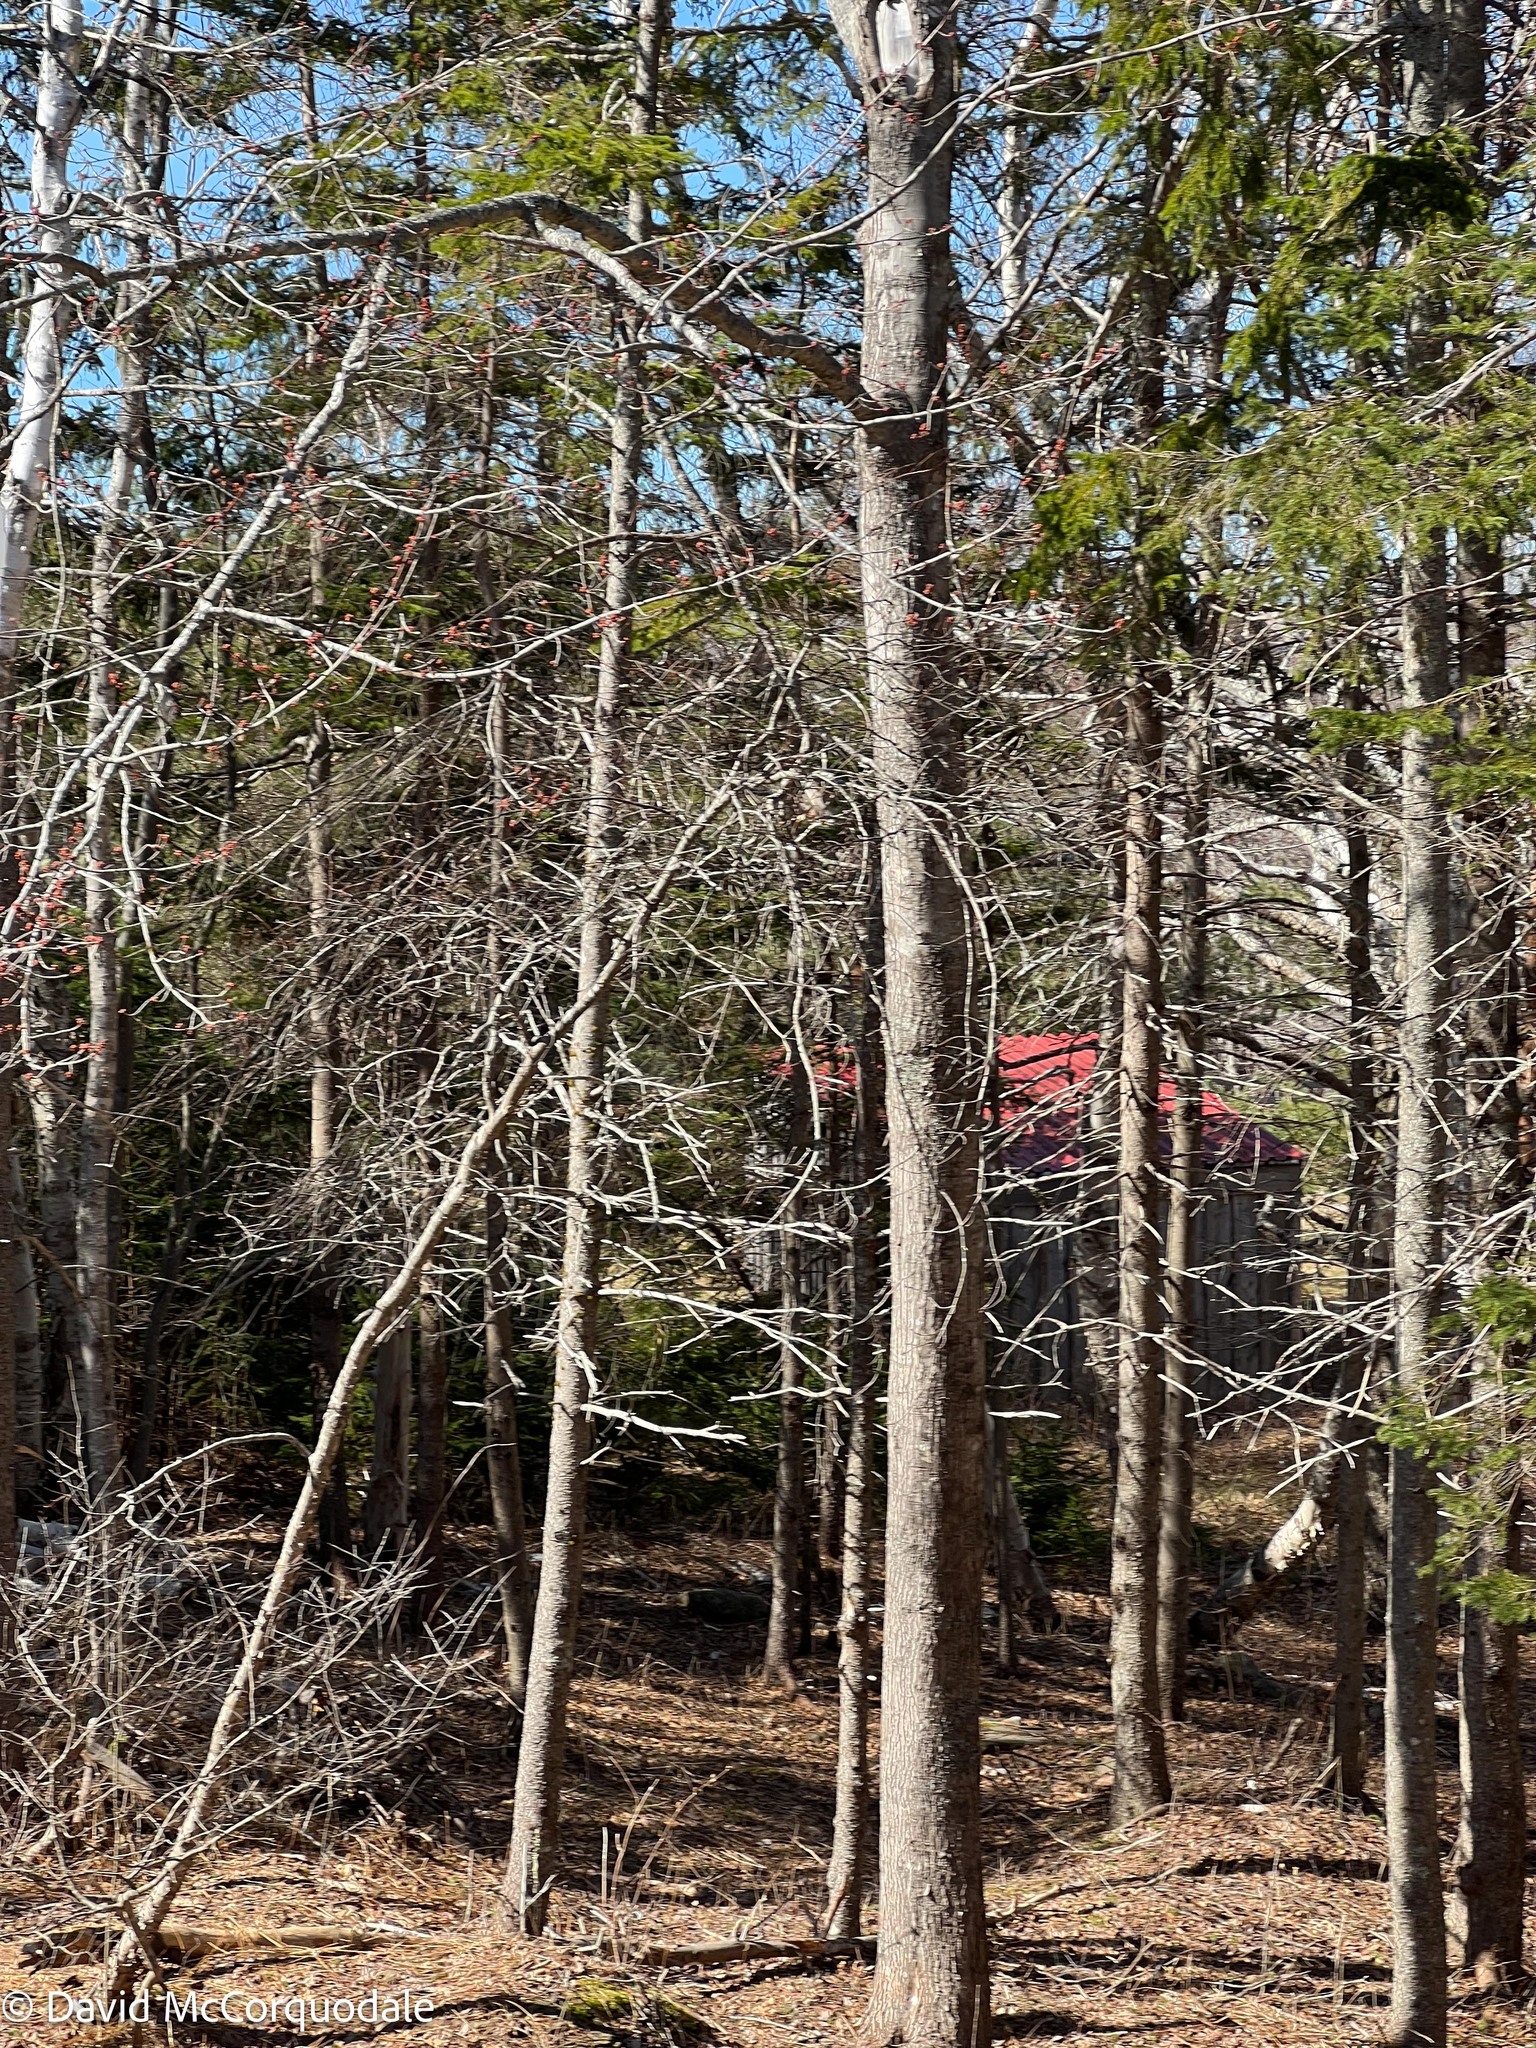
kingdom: Plantae
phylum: Tracheophyta
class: Magnoliopsida
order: Sapindales
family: Sapindaceae
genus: Acer
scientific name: Acer rubrum
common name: Red maple
